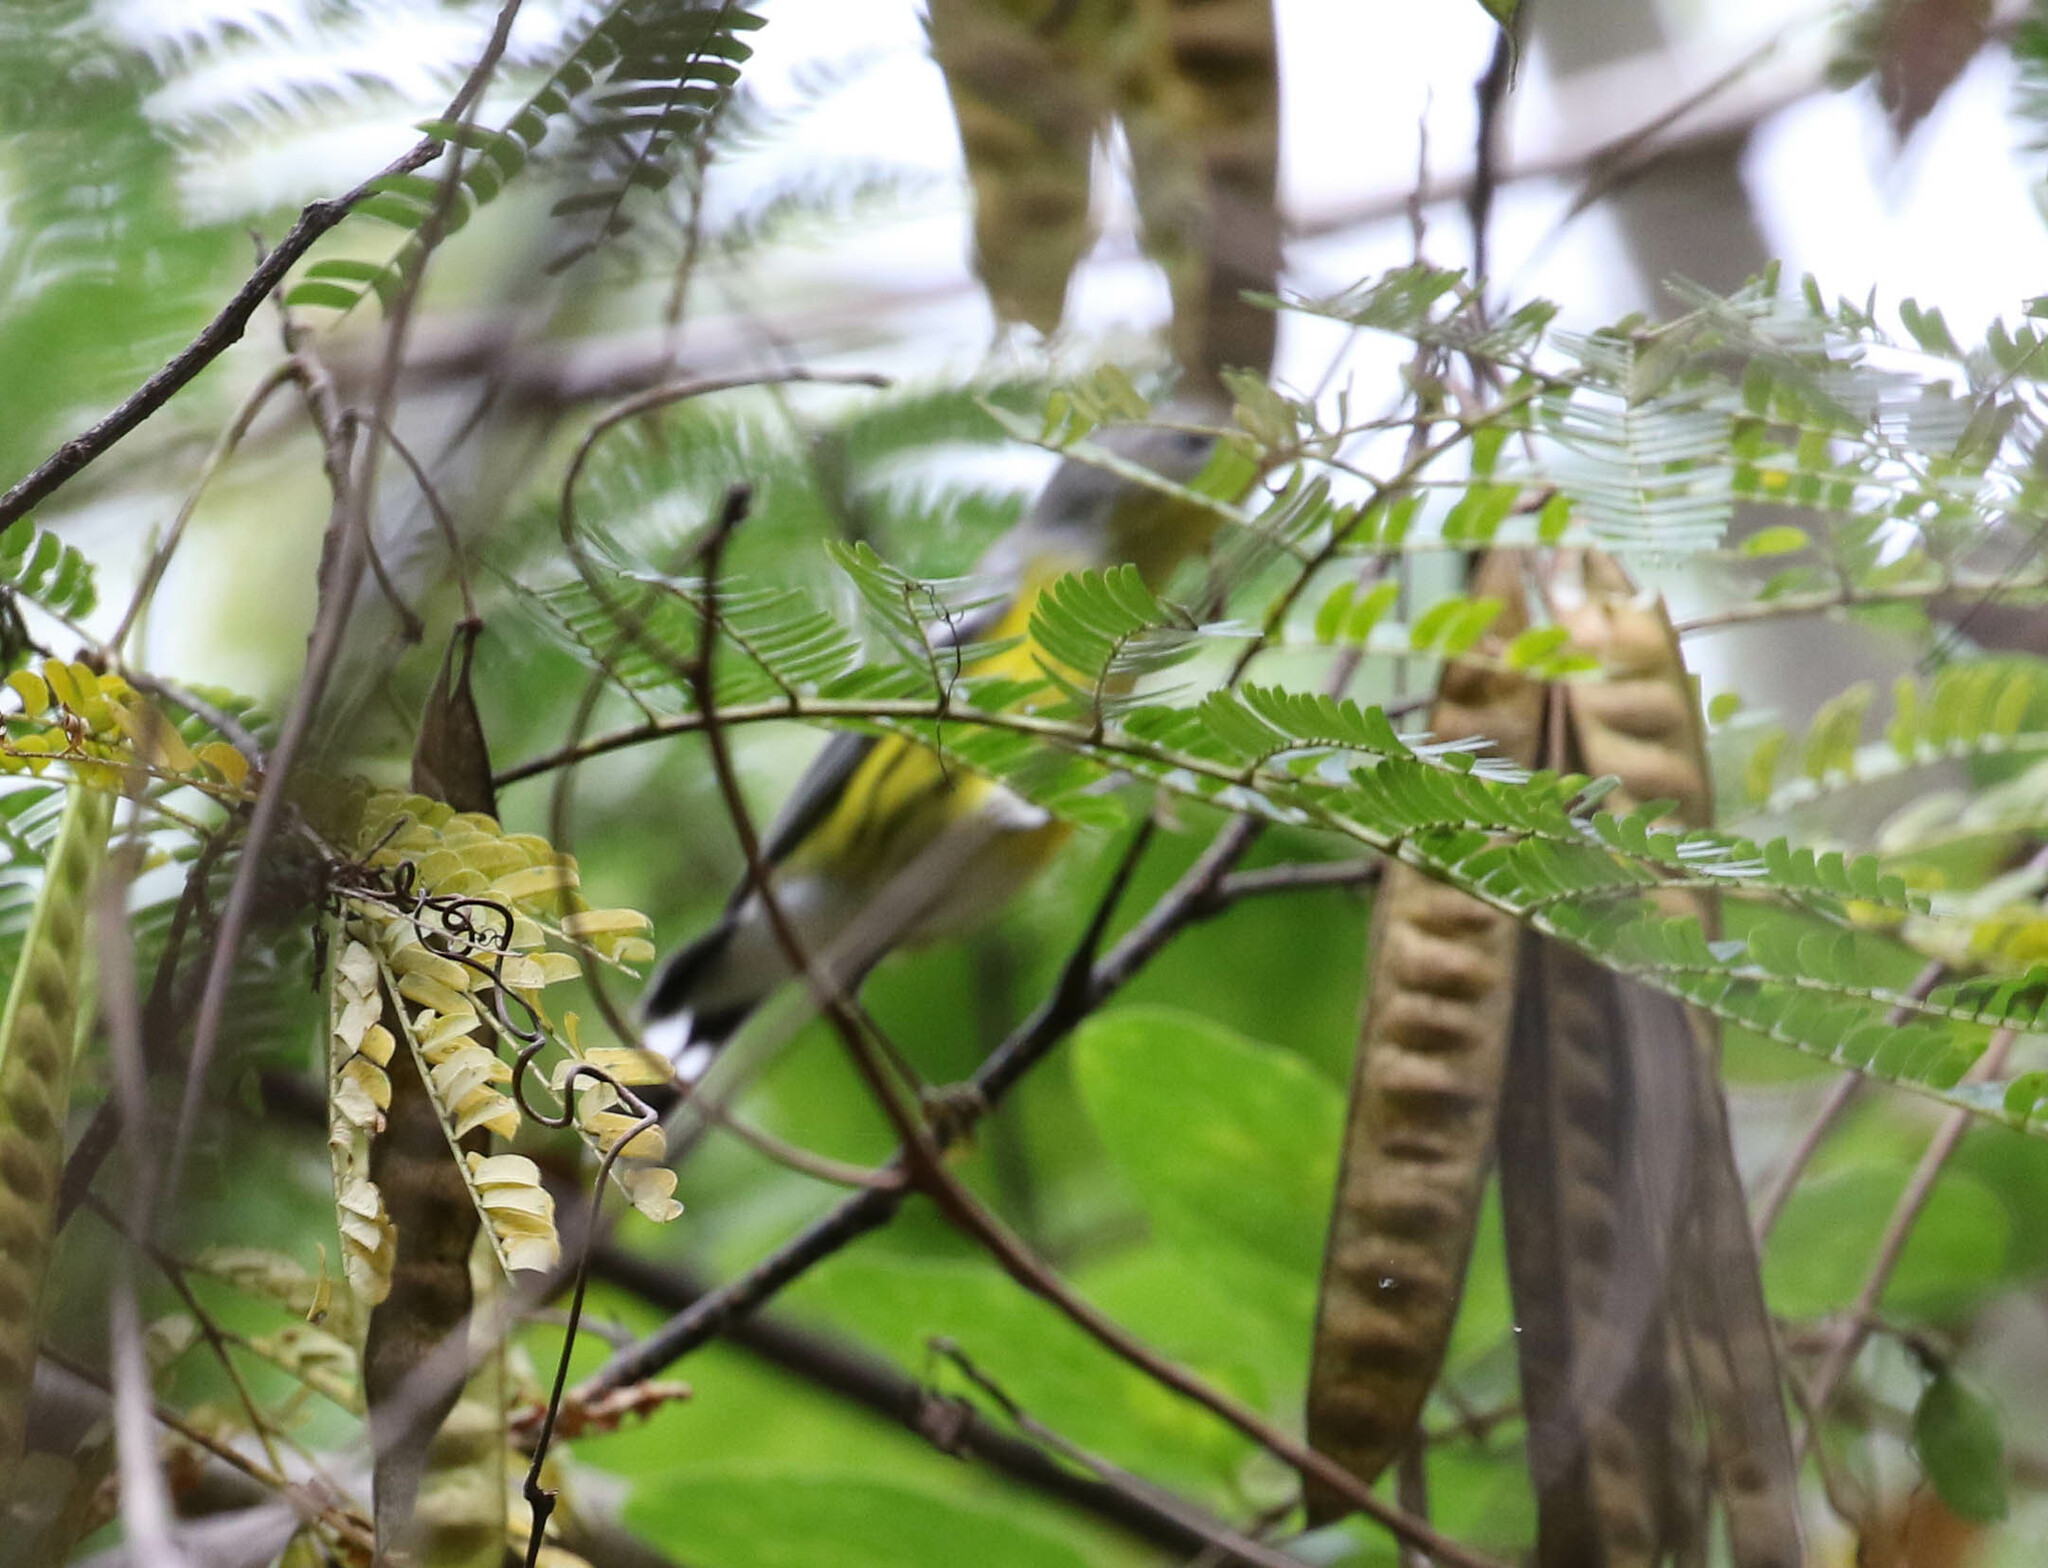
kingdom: Animalia
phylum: Chordata
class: Aves
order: Passeriformes
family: Vireonidae
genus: Vireo
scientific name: Vireo philadelphicus
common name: Philadelphia vireo
